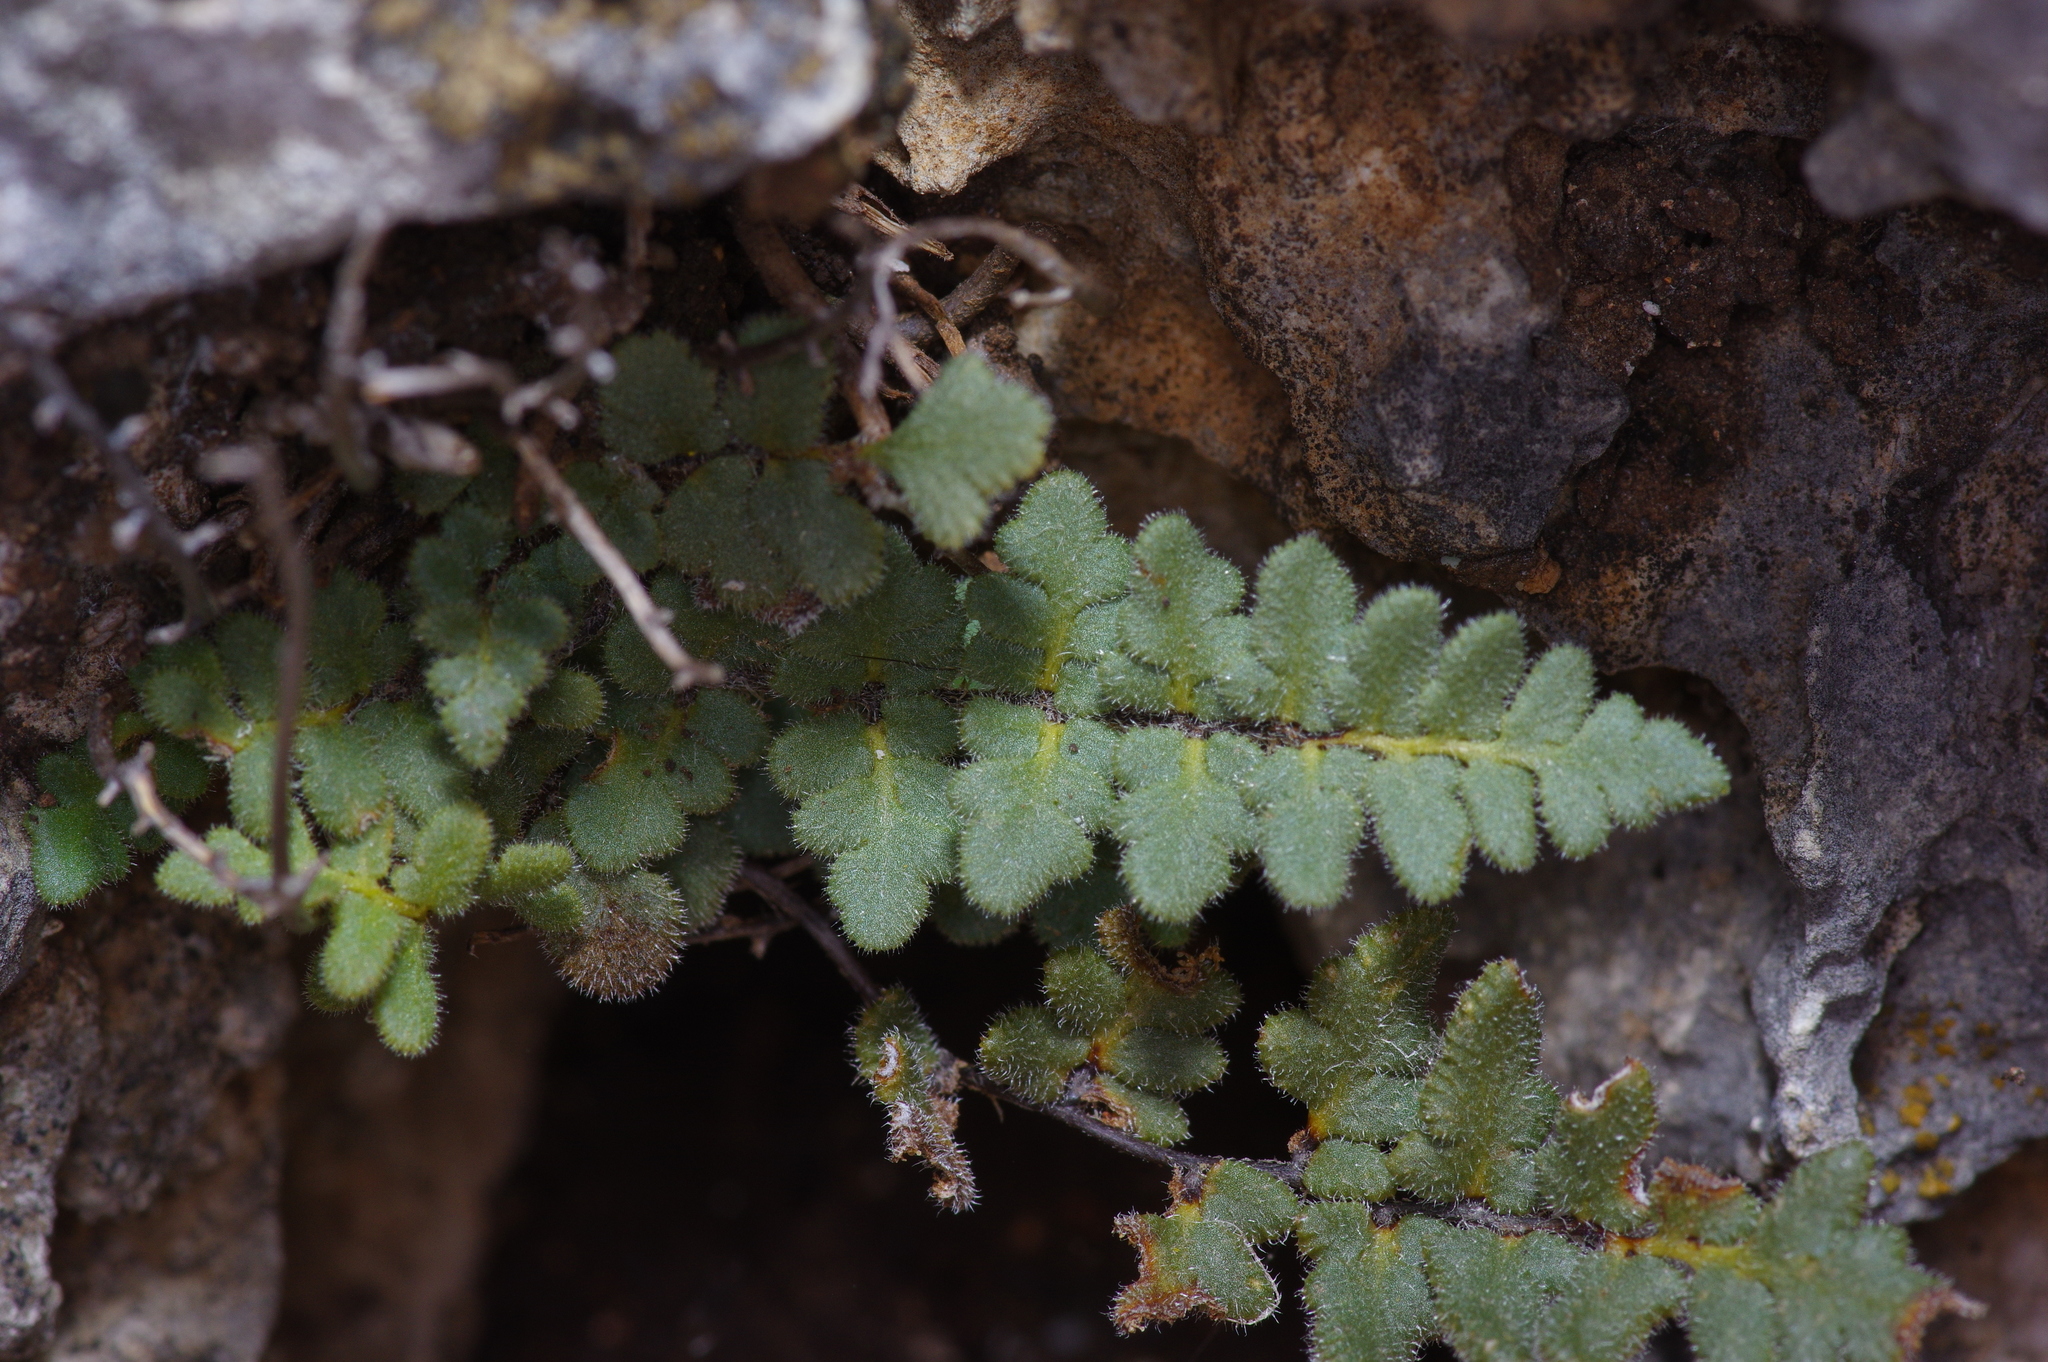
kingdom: Plantae
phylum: Tracheophyta
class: Polypodiopsida
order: Polypodiales
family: Pteridaceae
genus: Myriopteris
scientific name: Myriopteris scabra
